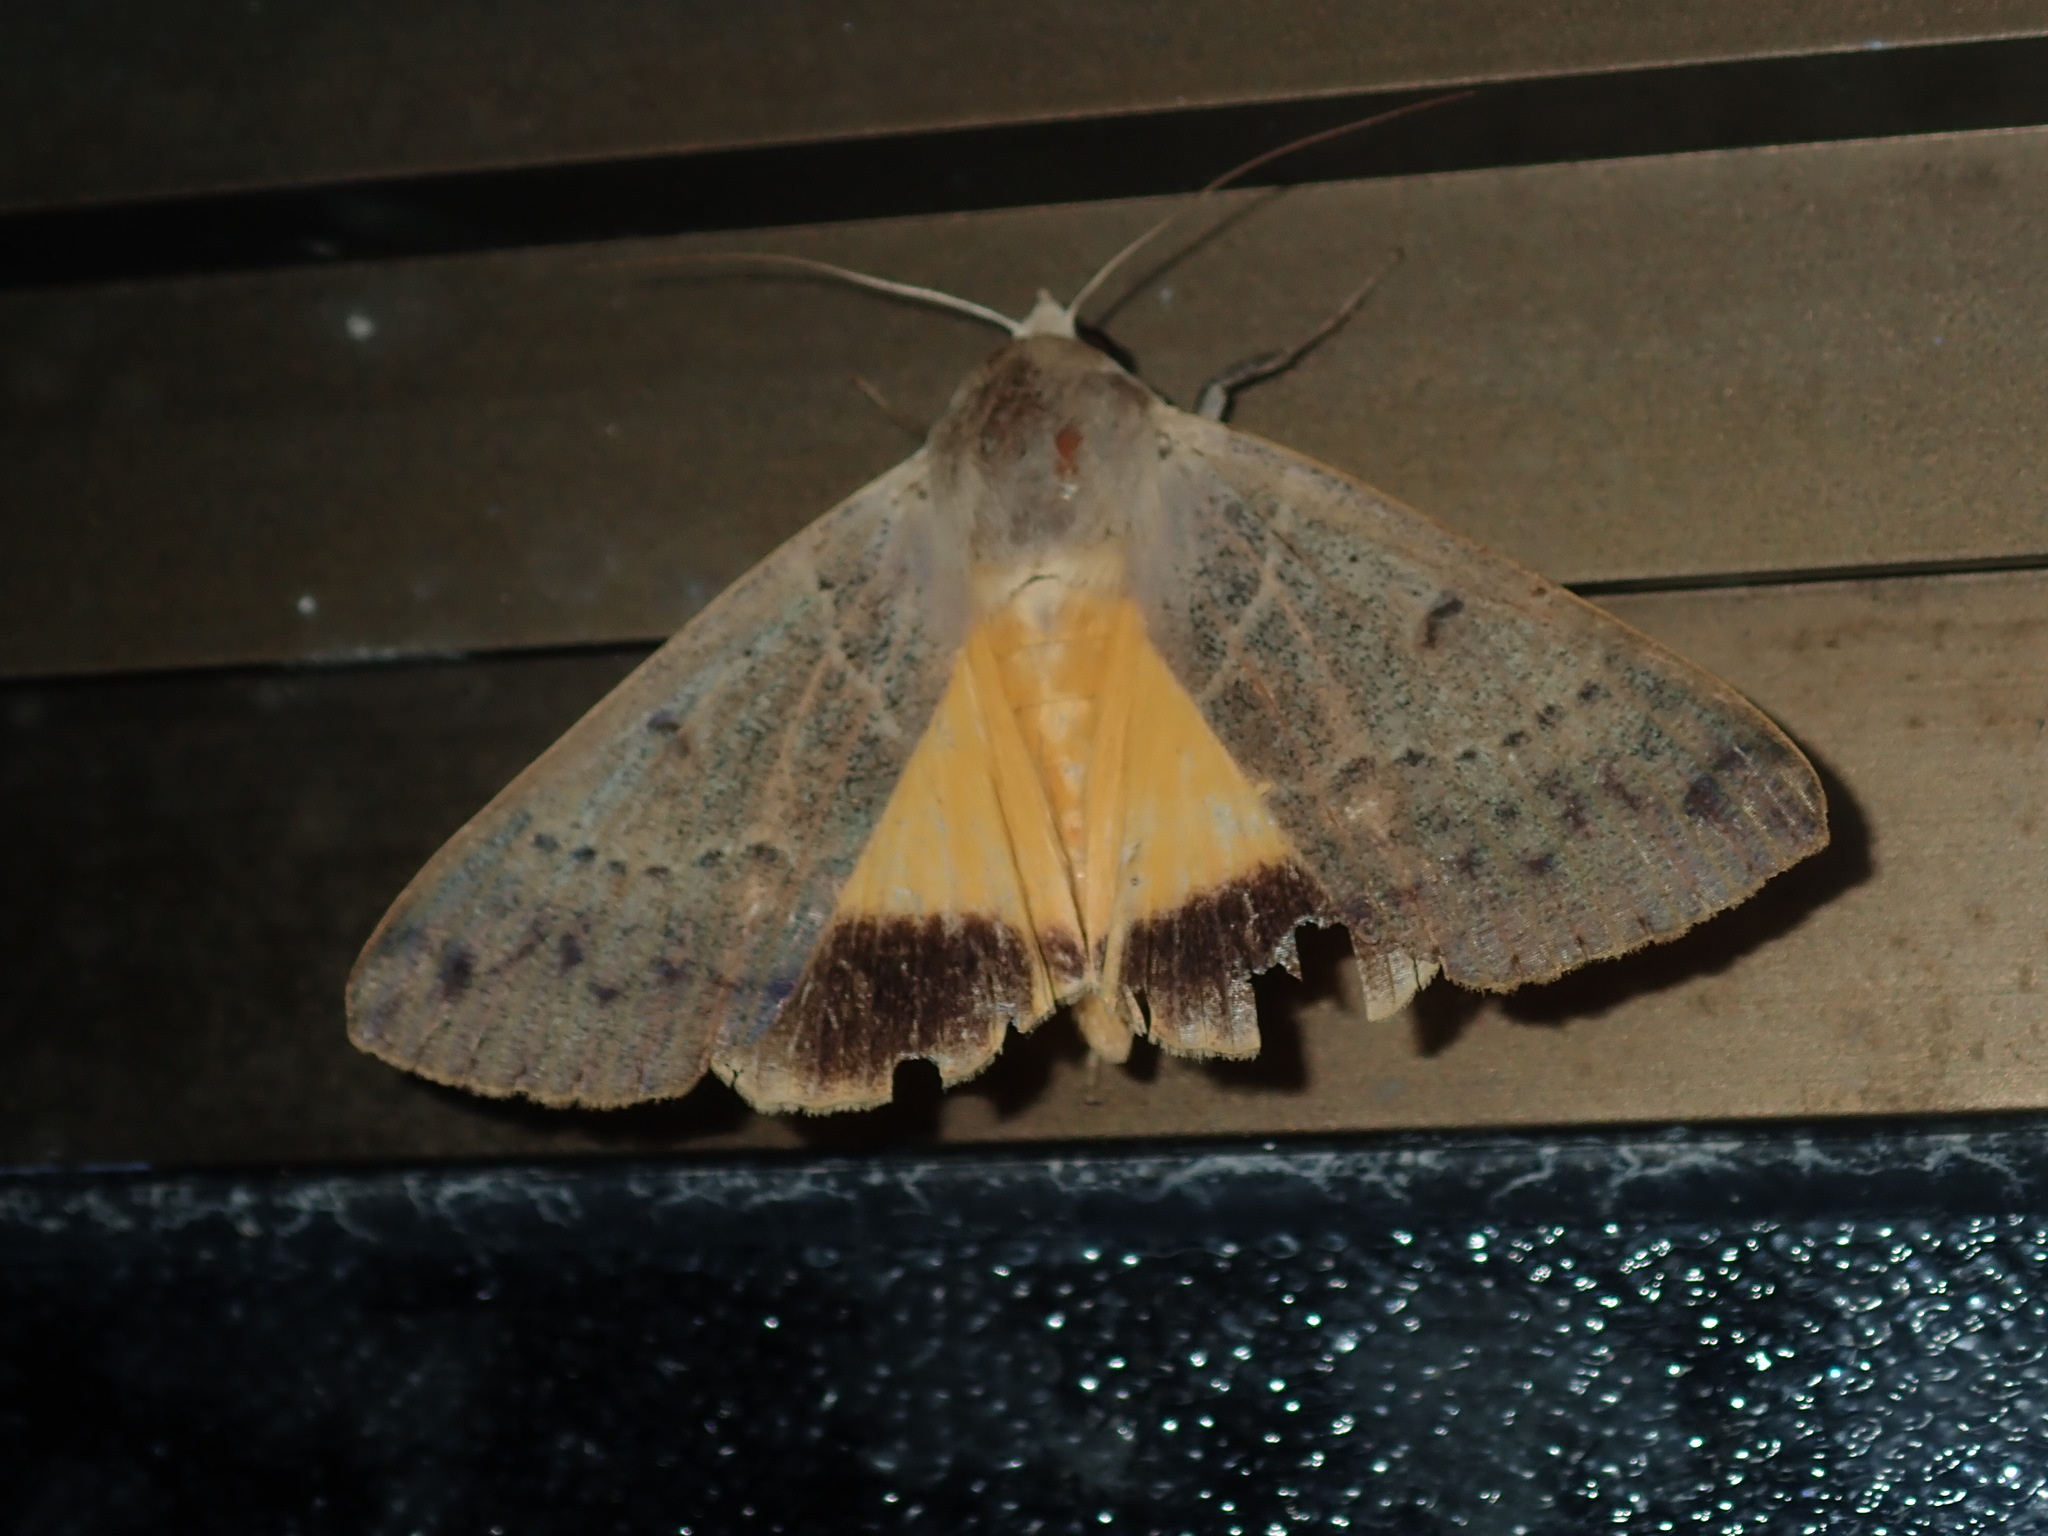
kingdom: Animalia
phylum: Arthropoda
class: Insecta
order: Lepidoptera
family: Erebidae
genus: Ophiusa
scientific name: Ophiusa disjungens
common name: Moth
